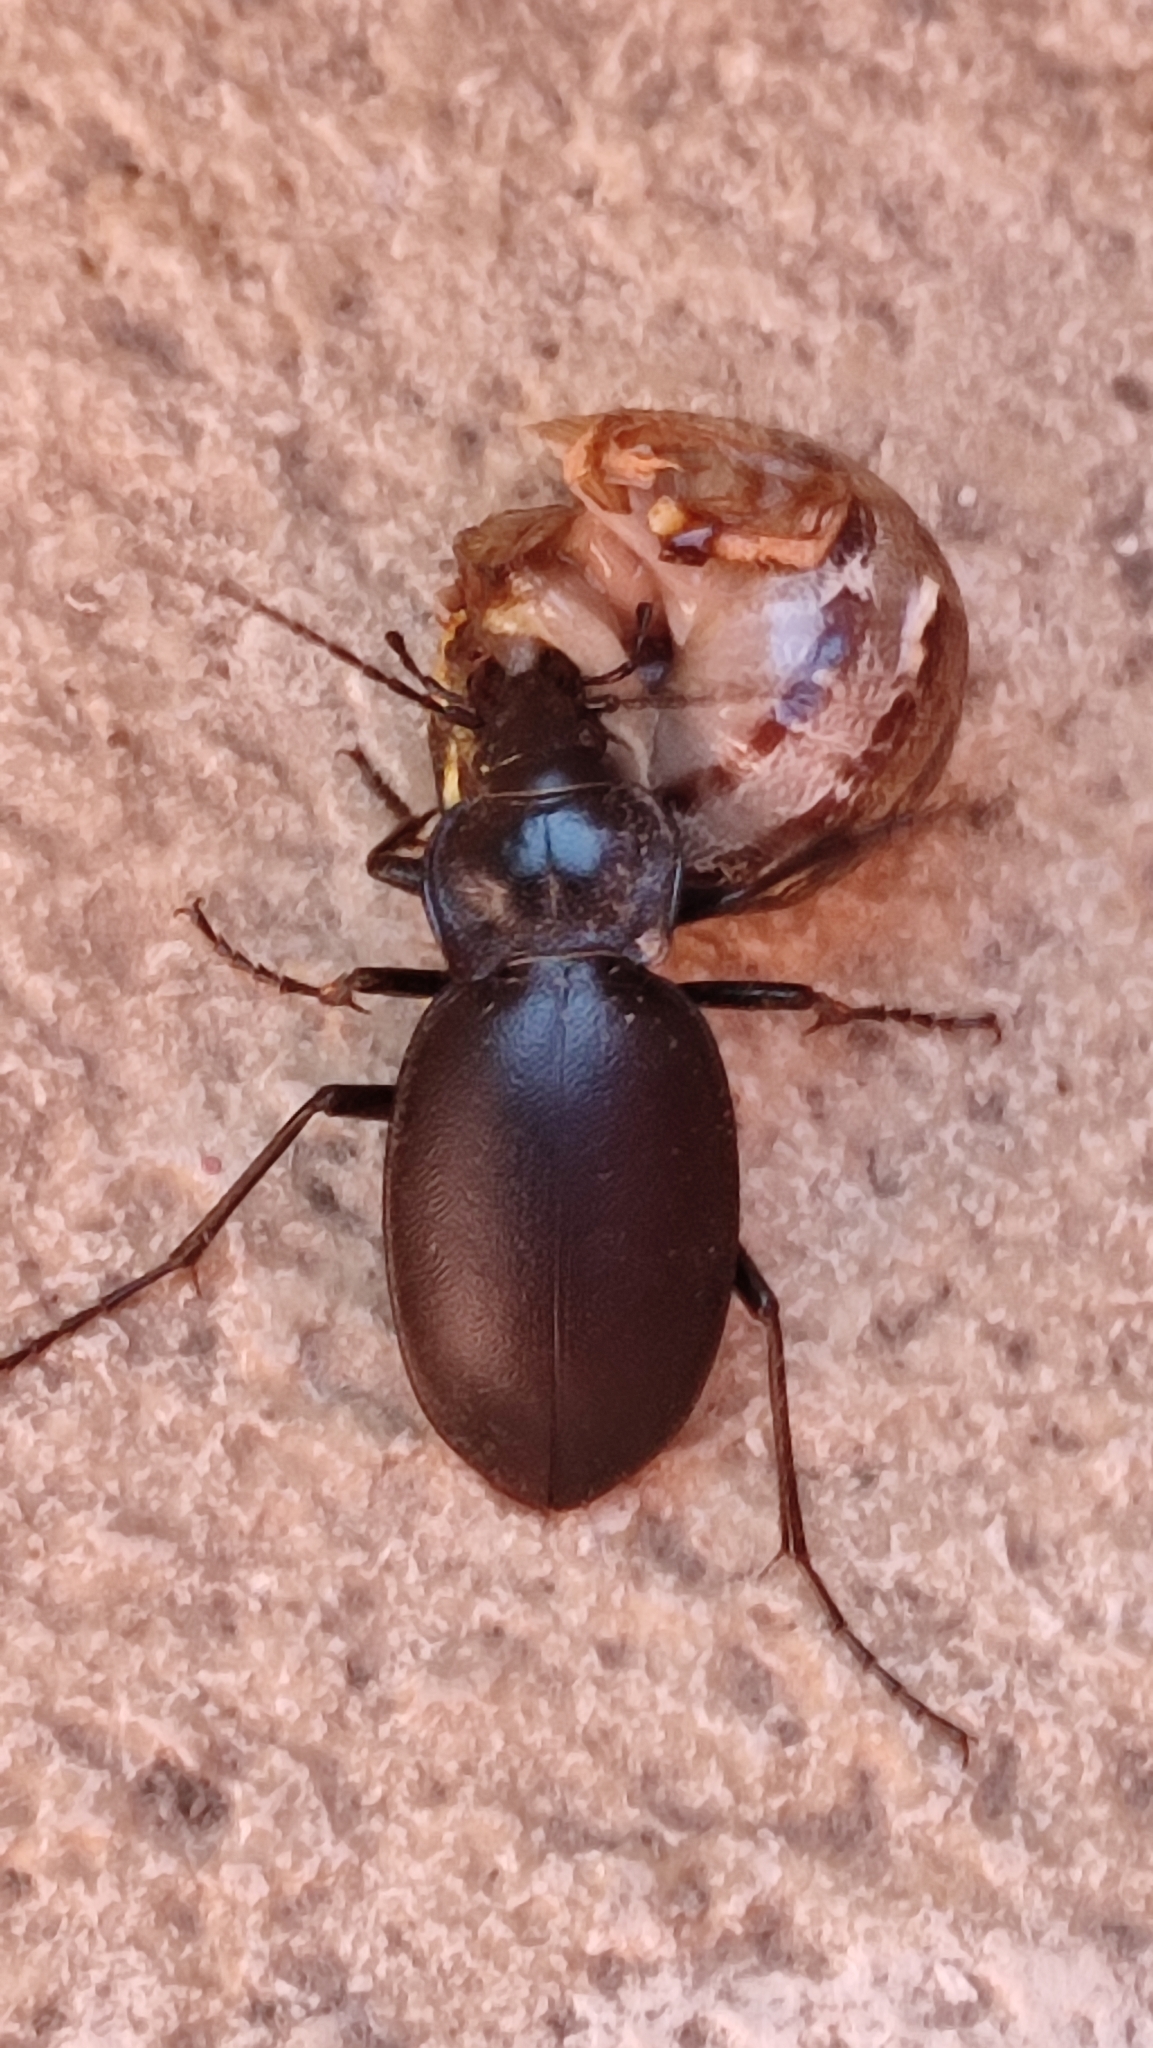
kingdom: Animalia
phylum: Arthropoda
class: Insecta
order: Coleoptera
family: Carabidae
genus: Carabus
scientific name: Carabus banonii
